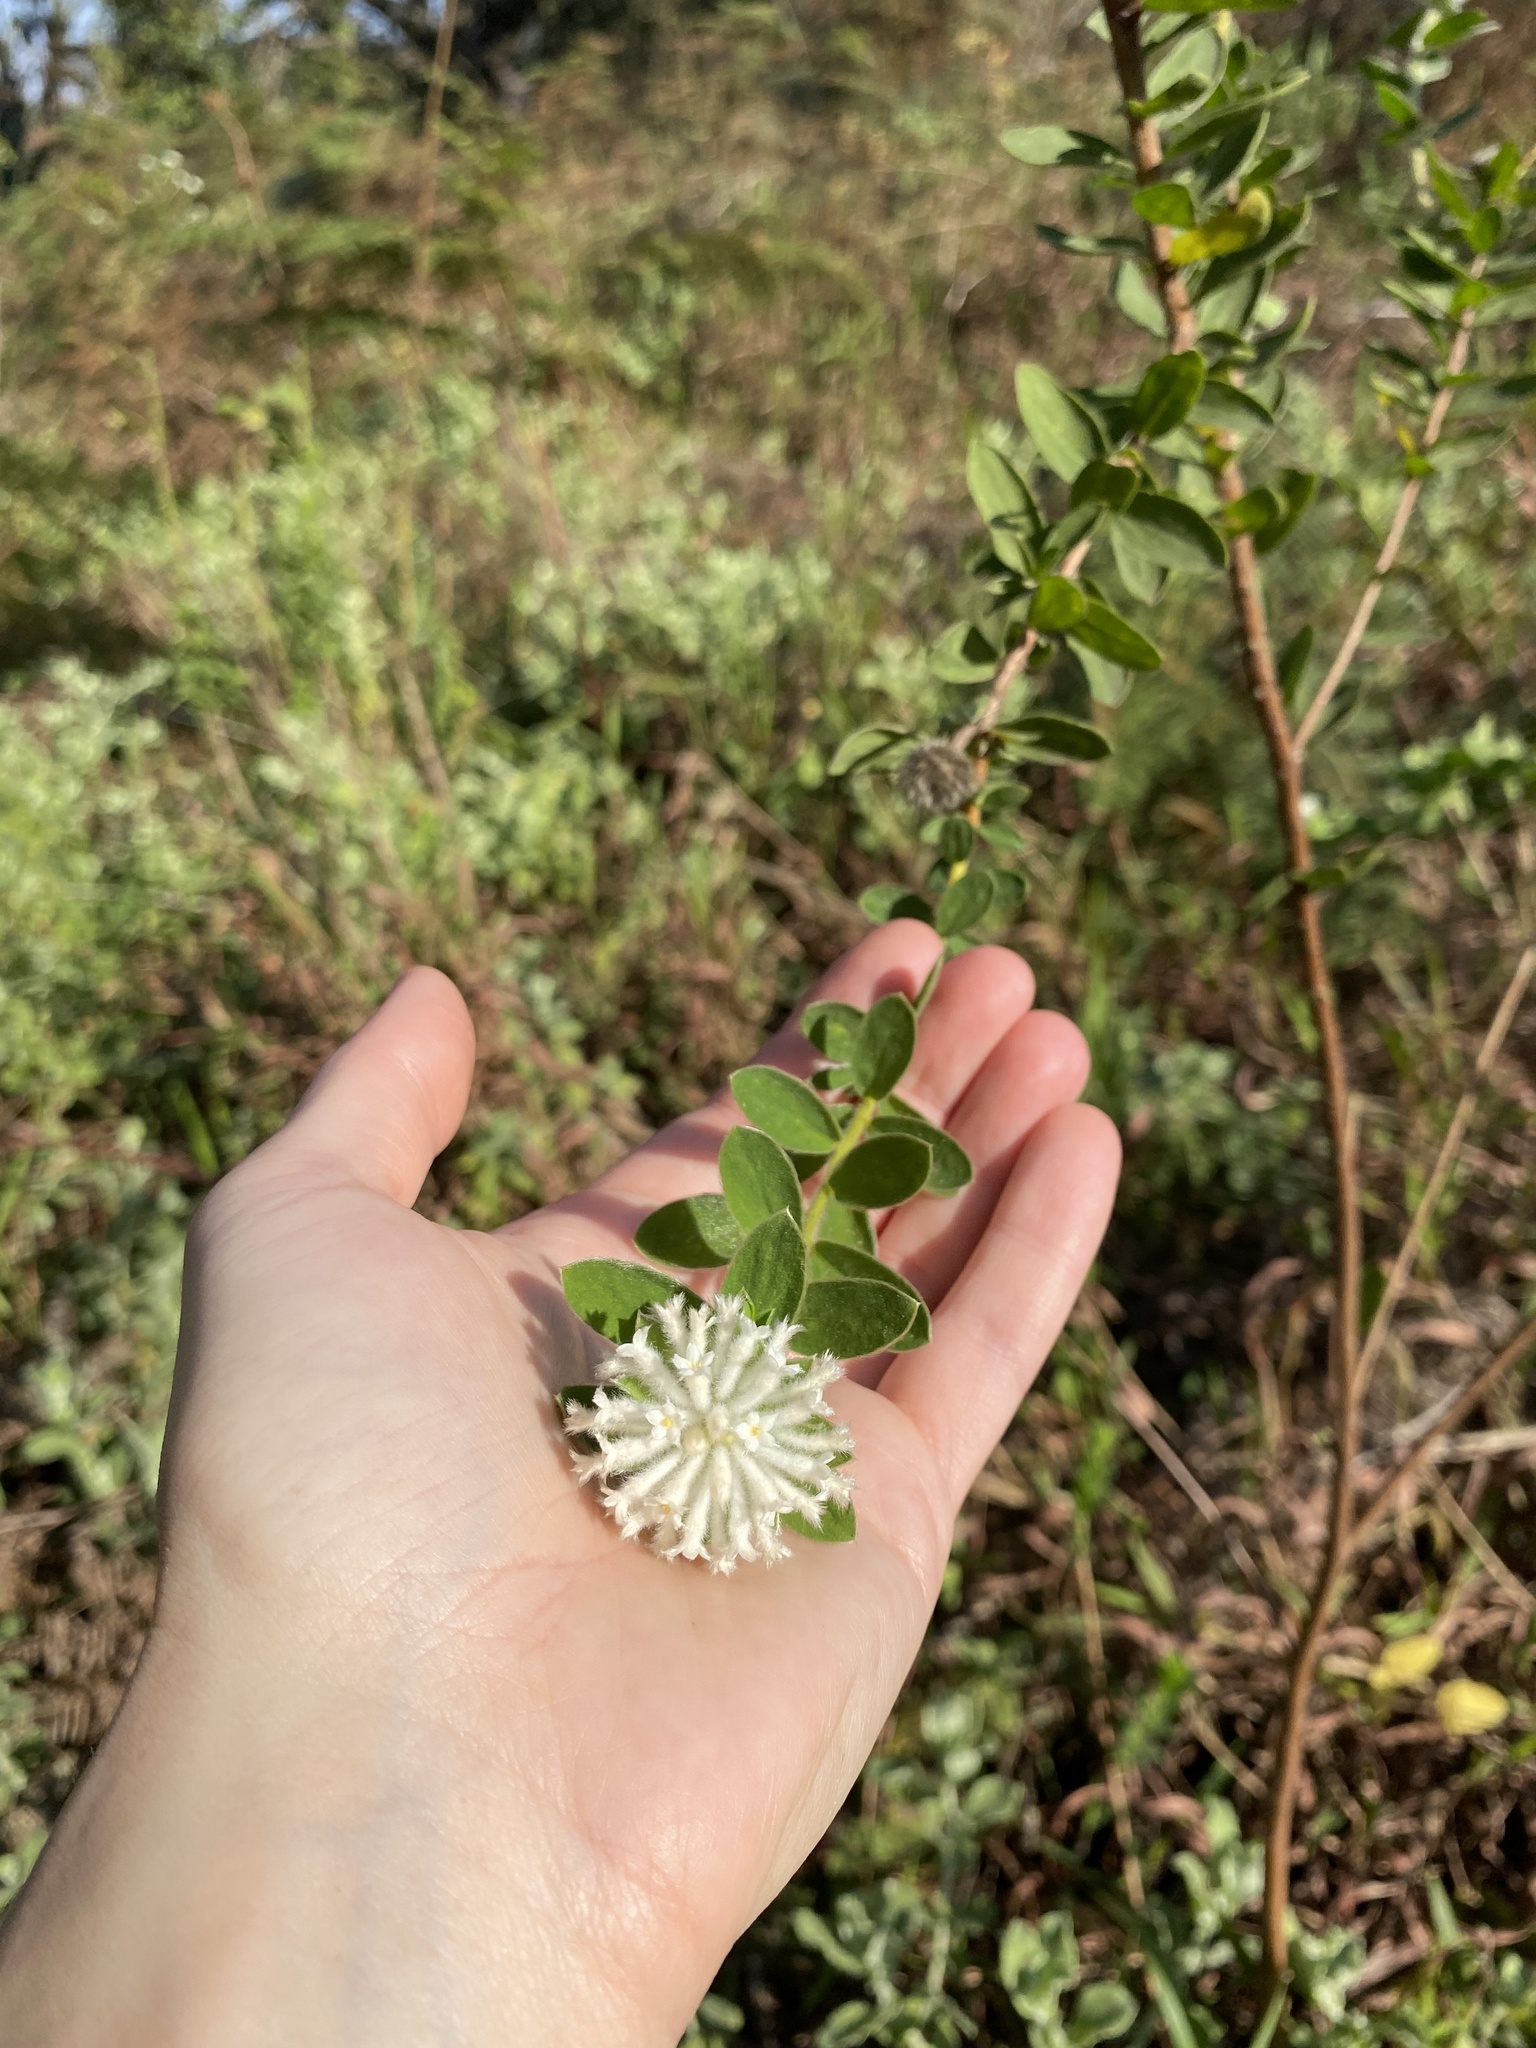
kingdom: Plantae
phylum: Tracheophyta
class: Magnoliopsida
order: Malvales
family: Thymelaeaceae
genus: Gnidia
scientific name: Gnidia calocephala
